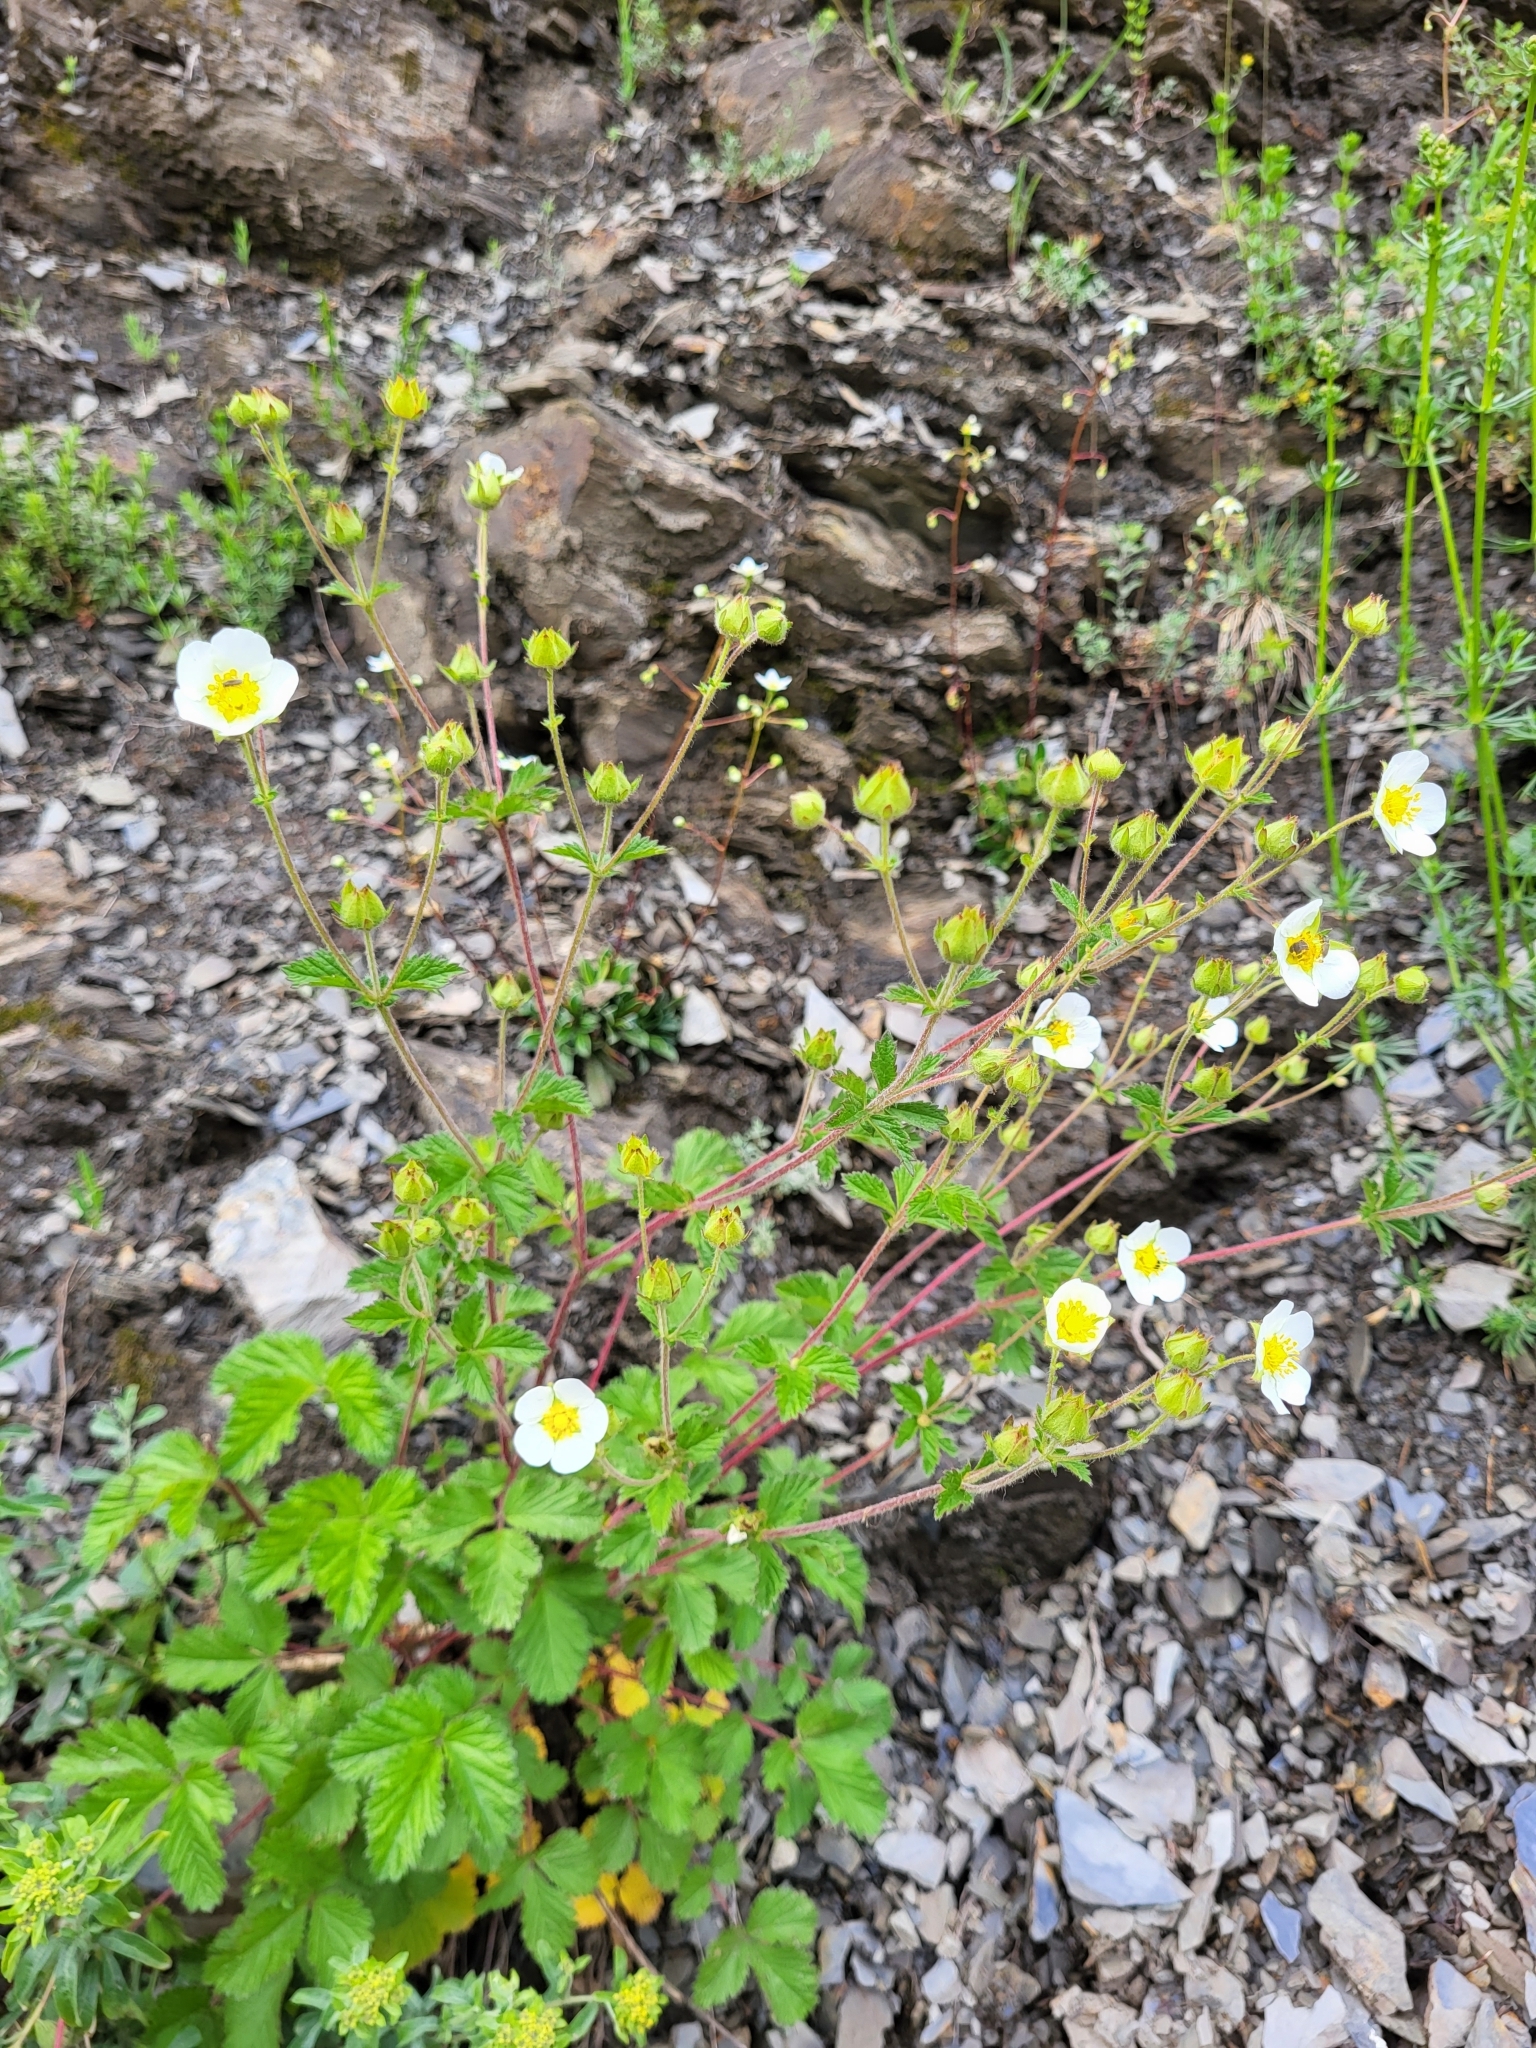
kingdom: Plantae
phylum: Tracheophyta
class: Magnoliopsida
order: Rosales
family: Rosaceae
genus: Drymocallis
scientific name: Drymocallis rupestris
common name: Rock cinquefoil
